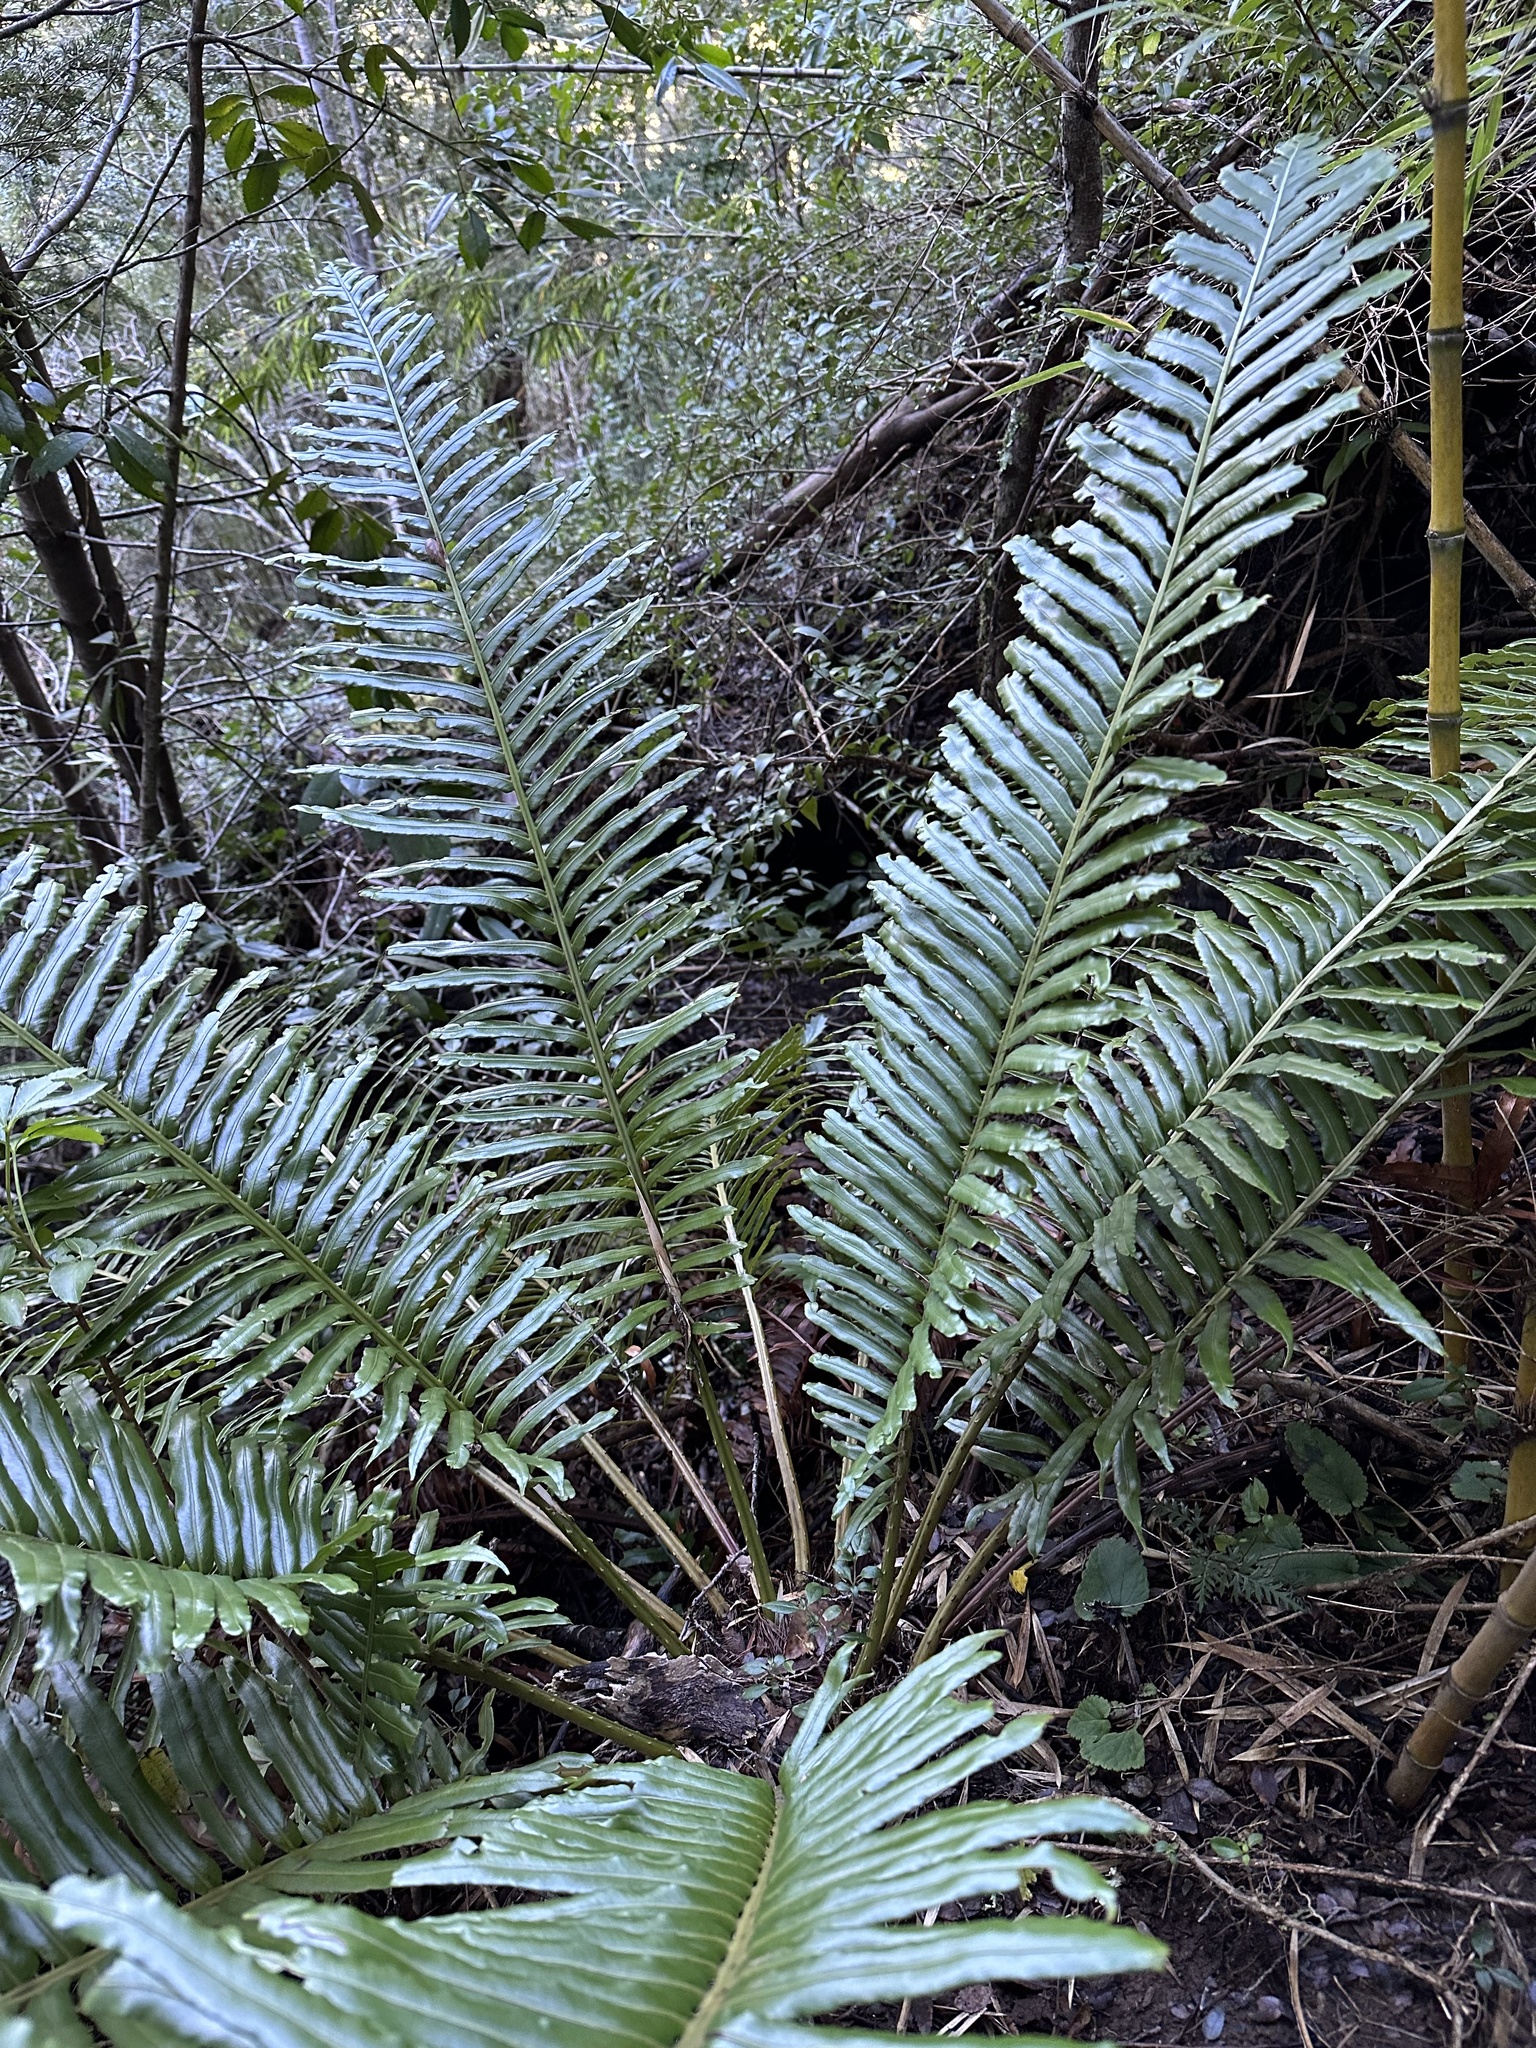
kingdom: Plantae
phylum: Tracheophyta
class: Polypodiopsida
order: Polypodiales
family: Blechnaceae
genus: Lomariocycas
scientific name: Lomariocycas magellanica
